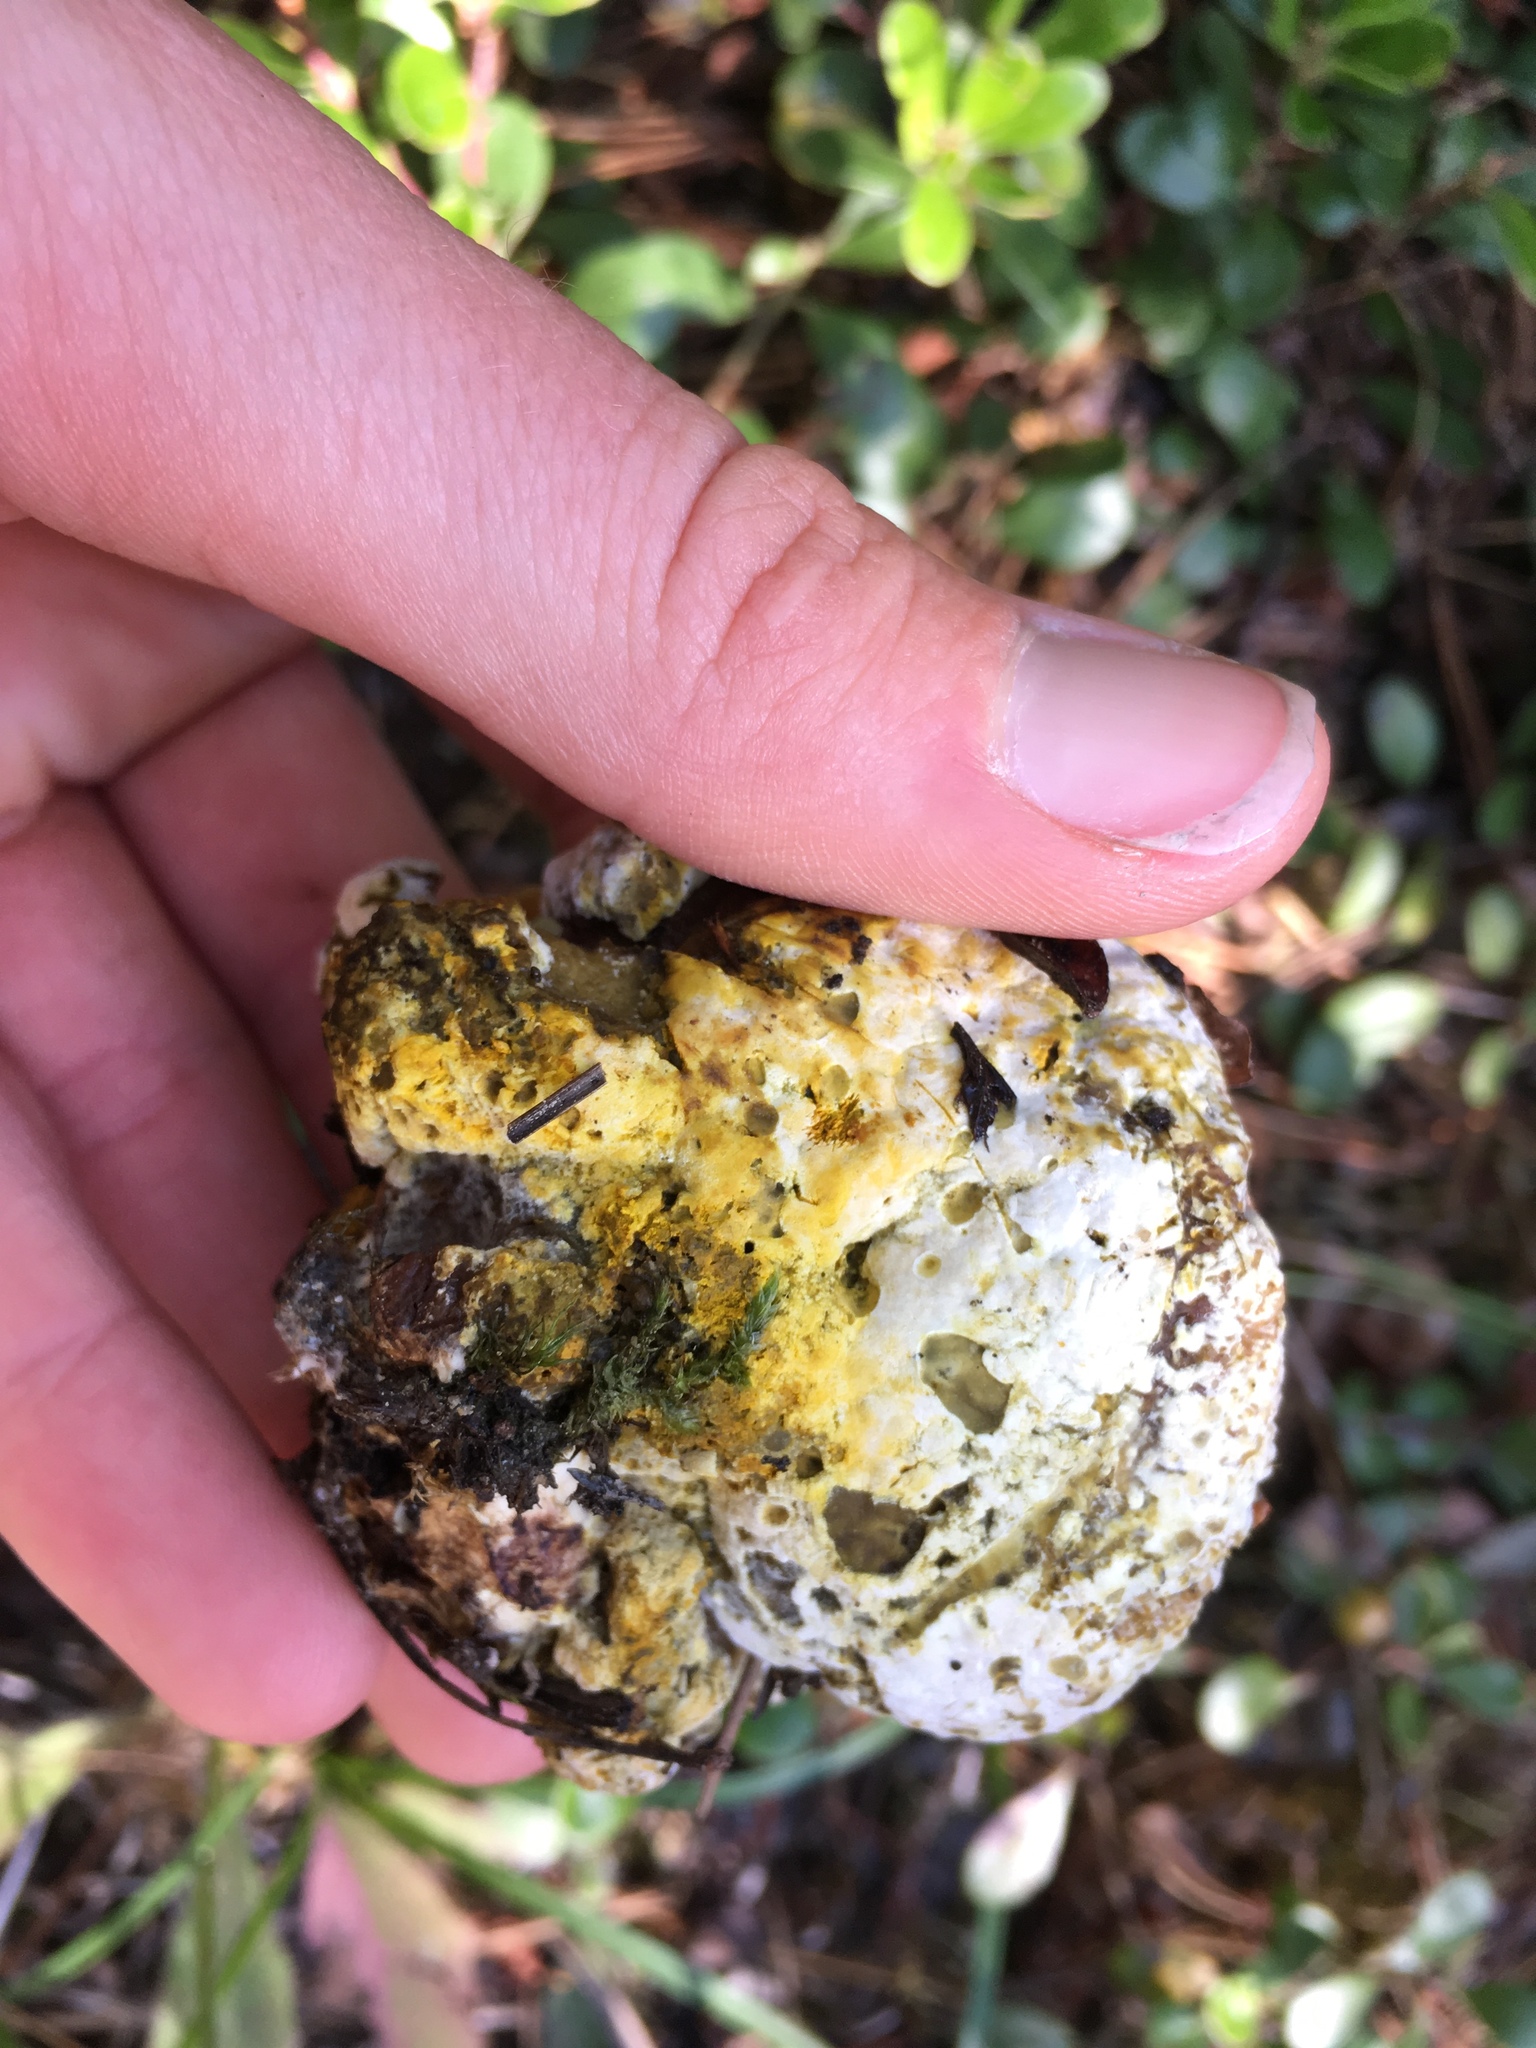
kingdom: Fungi
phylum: Ascomycota
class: Sordariomycetes
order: Hypocreales
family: Hypocreaceae
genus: Hypomyces
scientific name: Hypomyces chrysospermus
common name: Bolete mould
